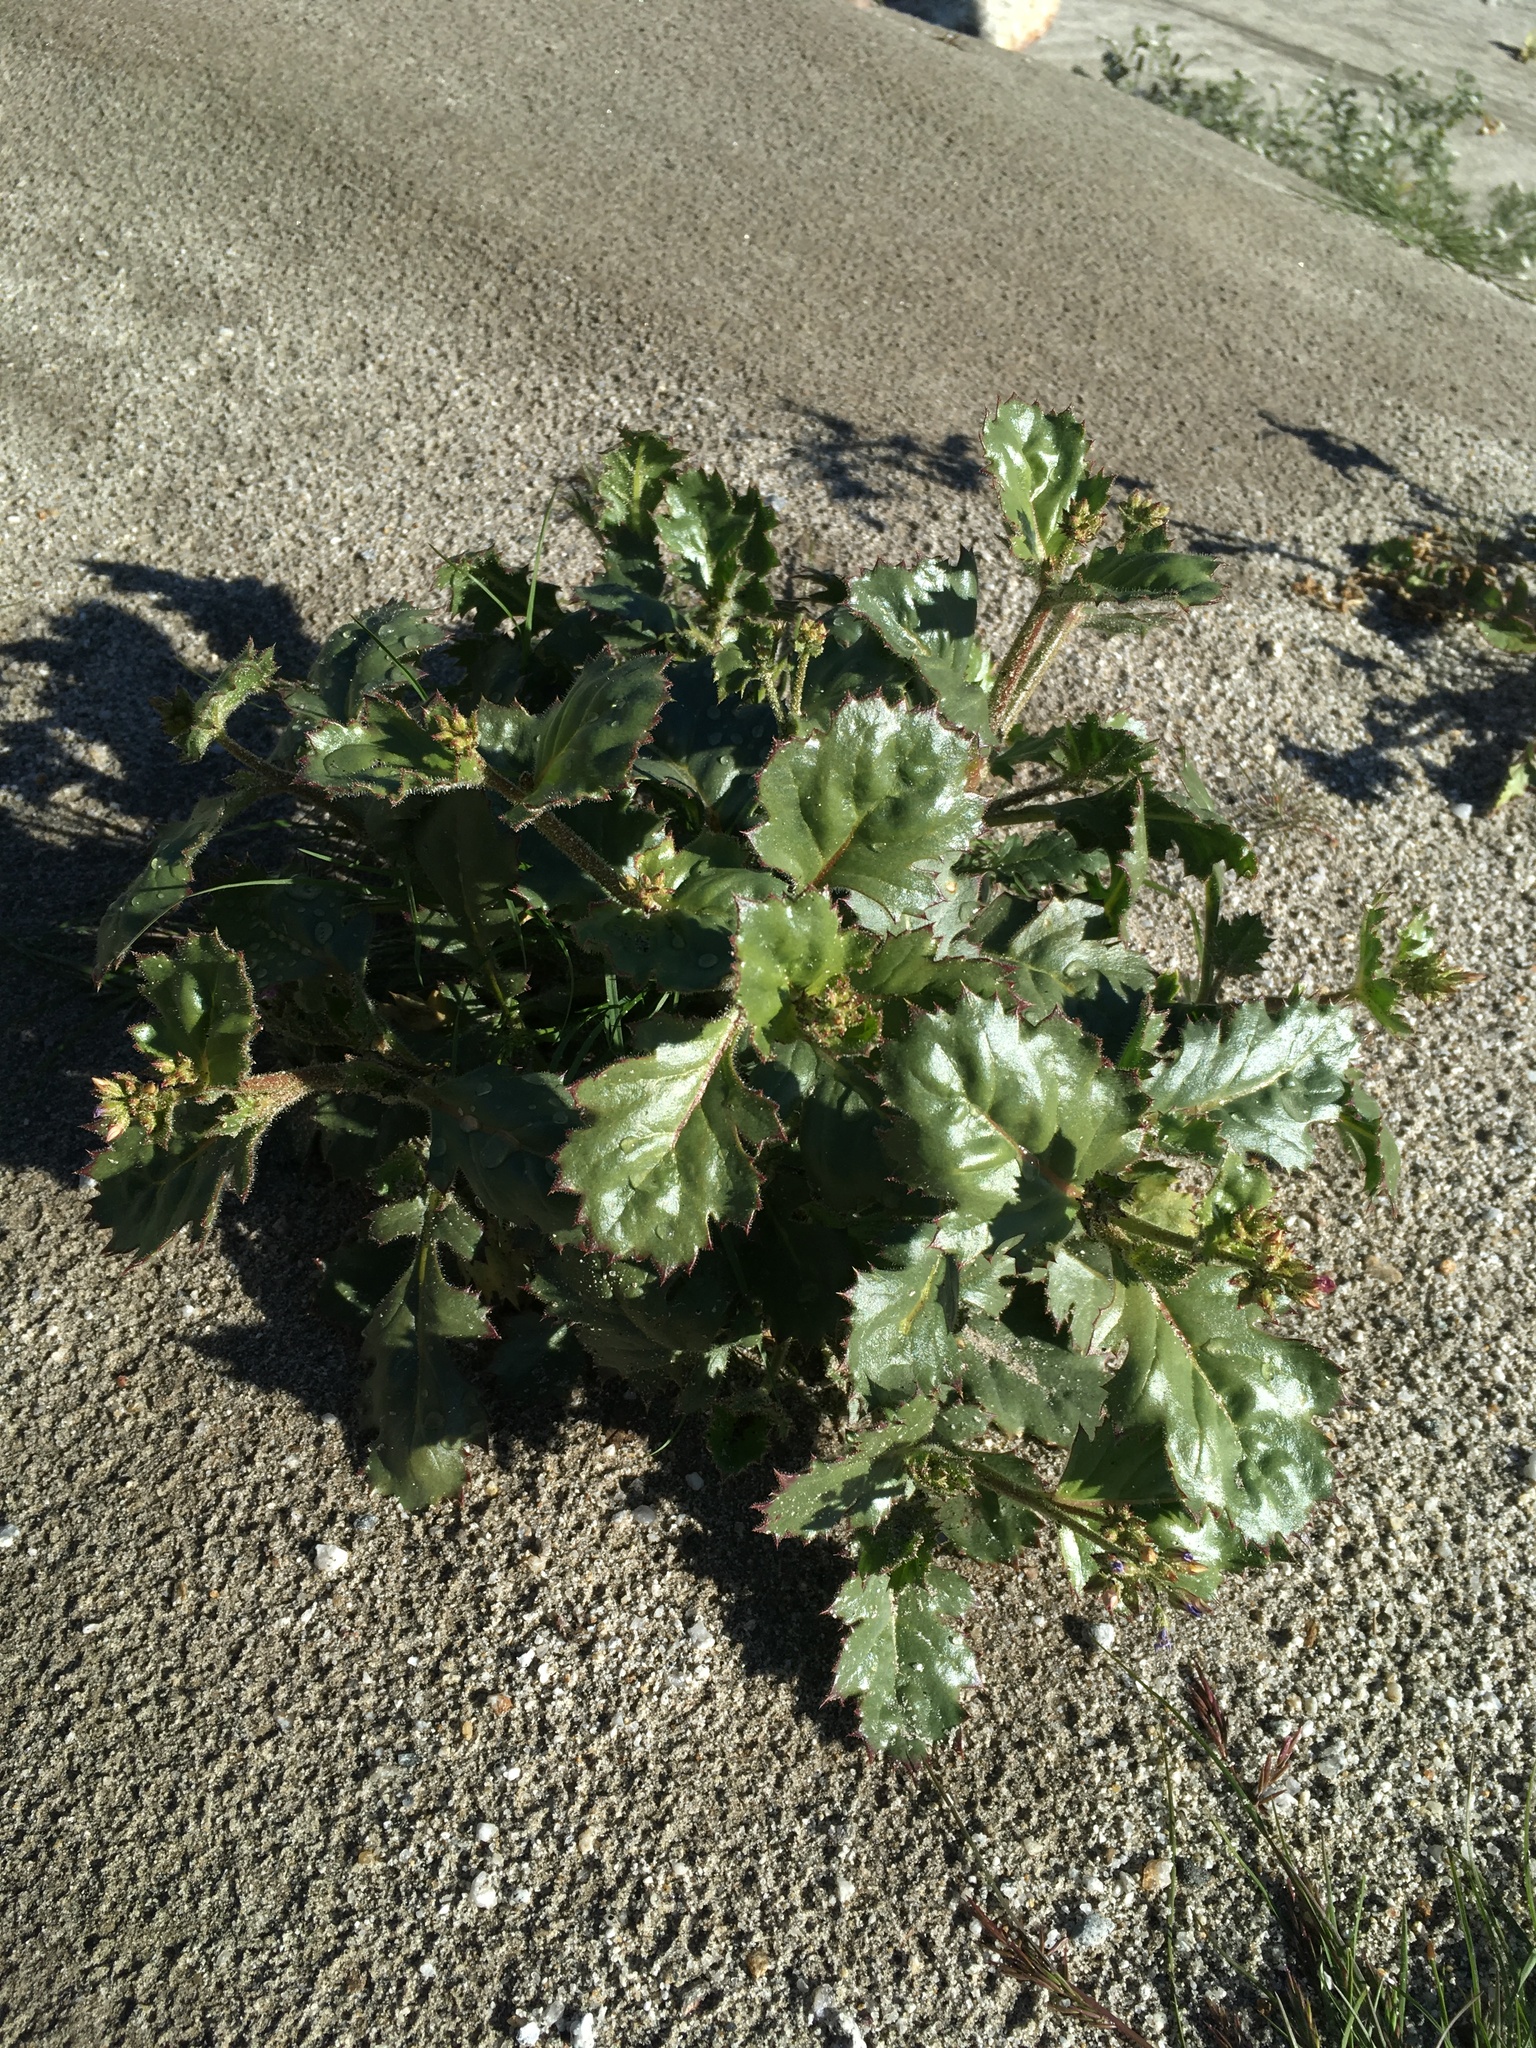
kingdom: Plantae
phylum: Tracheophyta
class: Magnoliopsida
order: Ericales
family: Polemoniaceae
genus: Aliciella
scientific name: Aliciella latifolia
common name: Broad-leaf gilia
